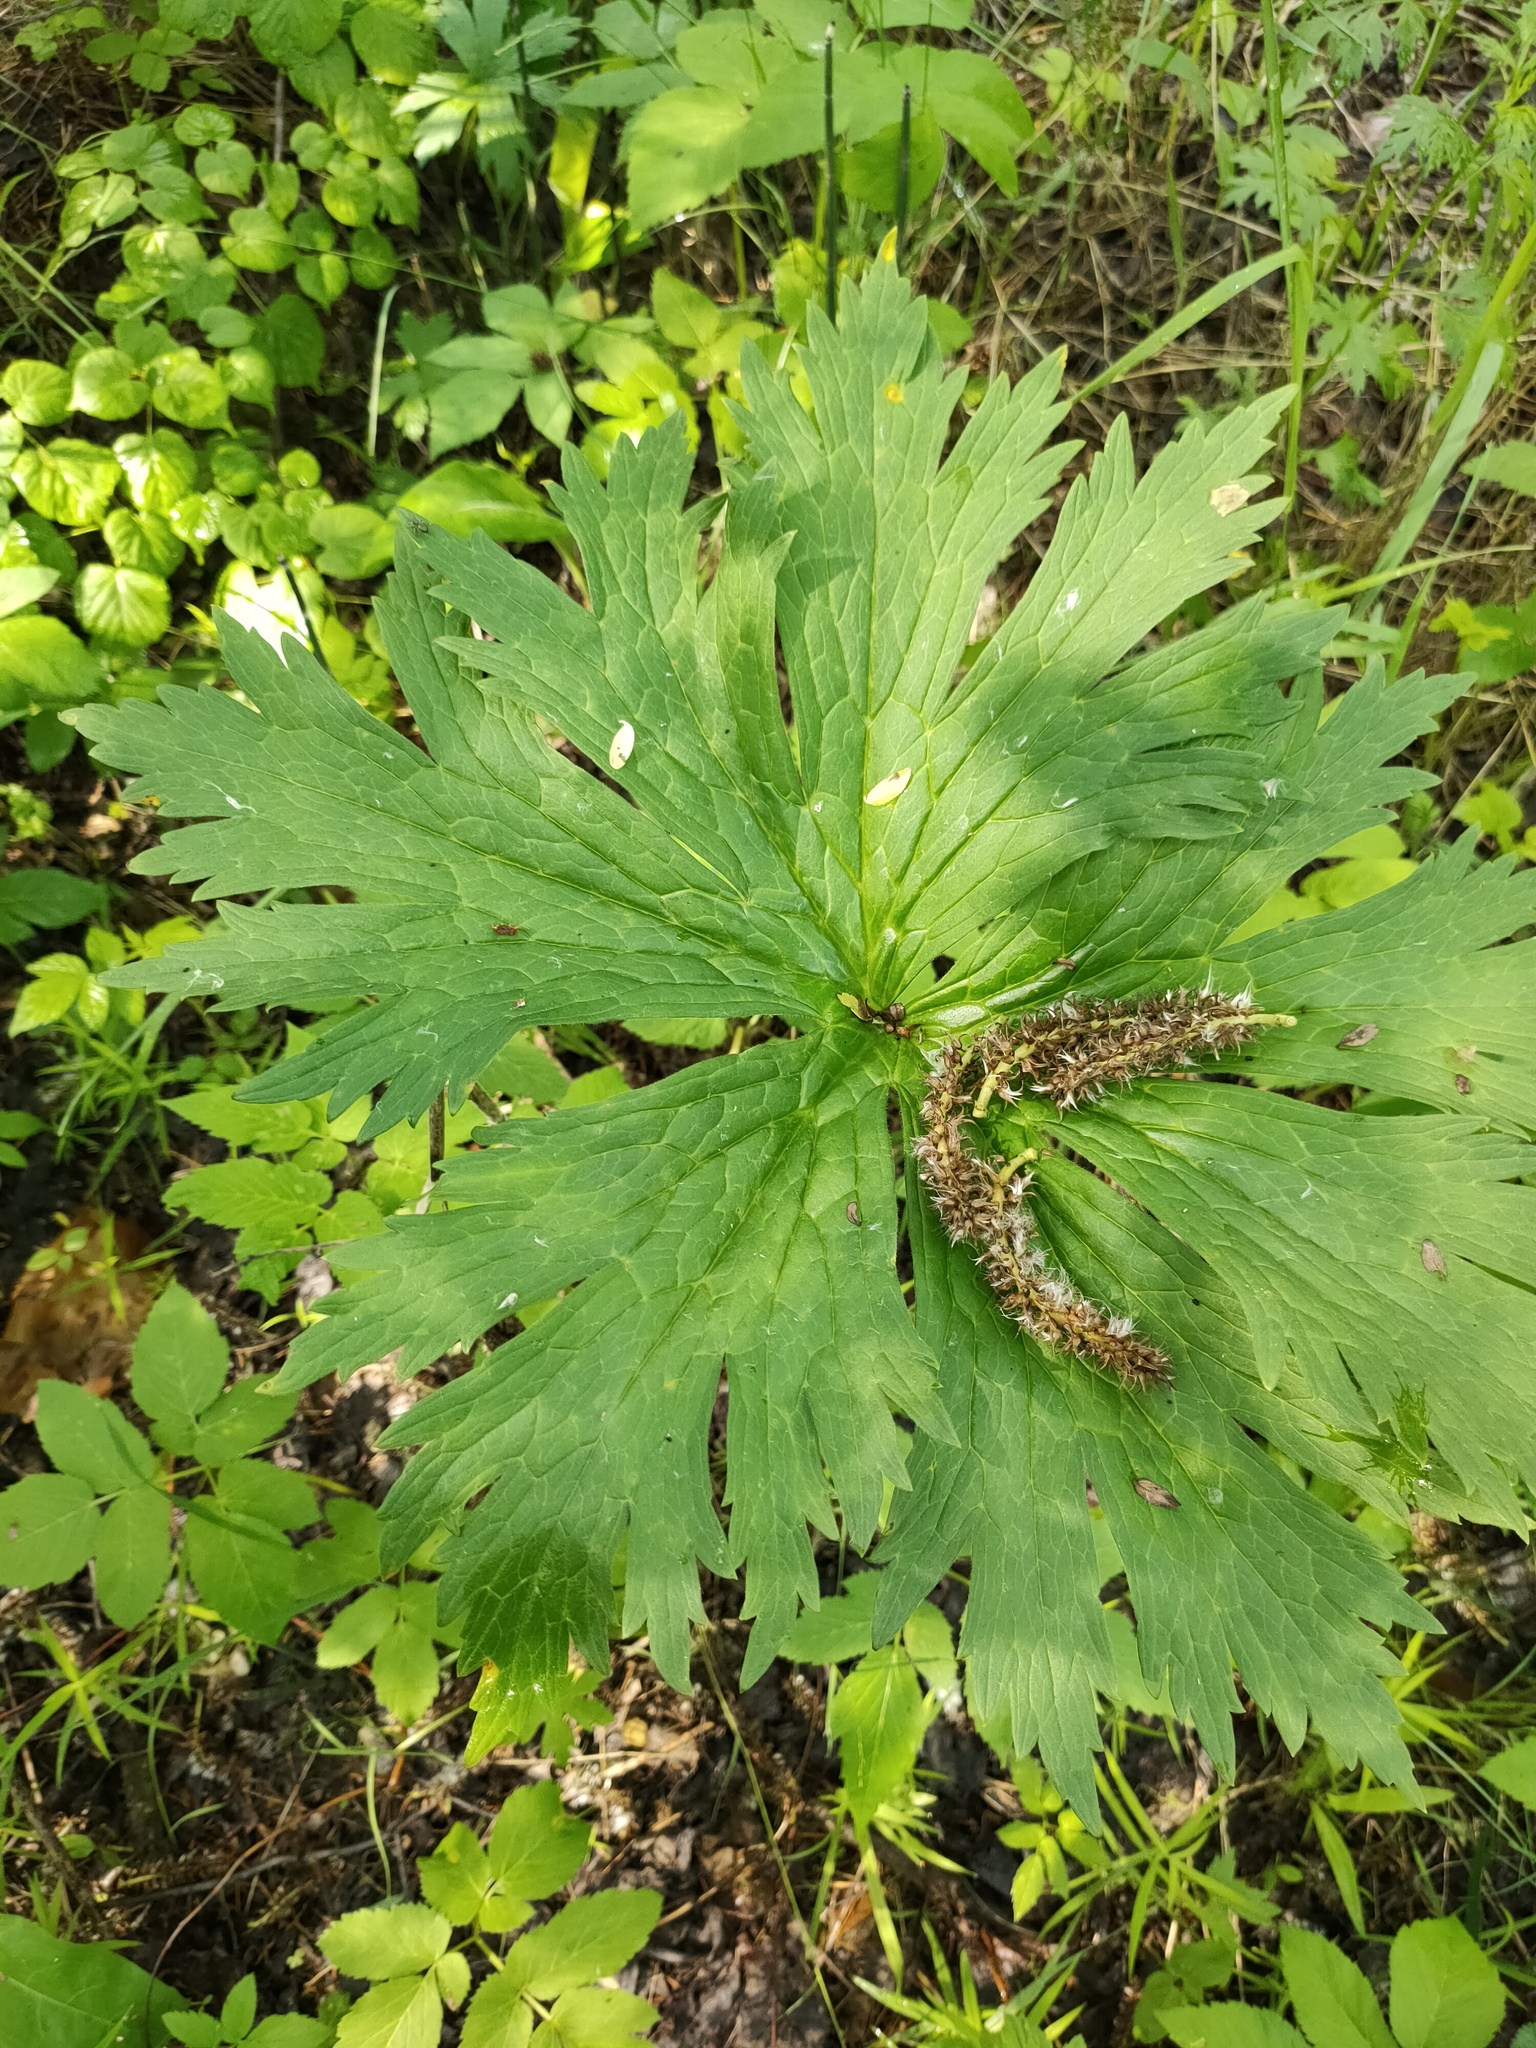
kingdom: Plantae
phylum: Tracheophyta
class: Magnoliopsida
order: Ranunculales
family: Ranunculaceae
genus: Aconitum
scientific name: Aconitum septentrionale
